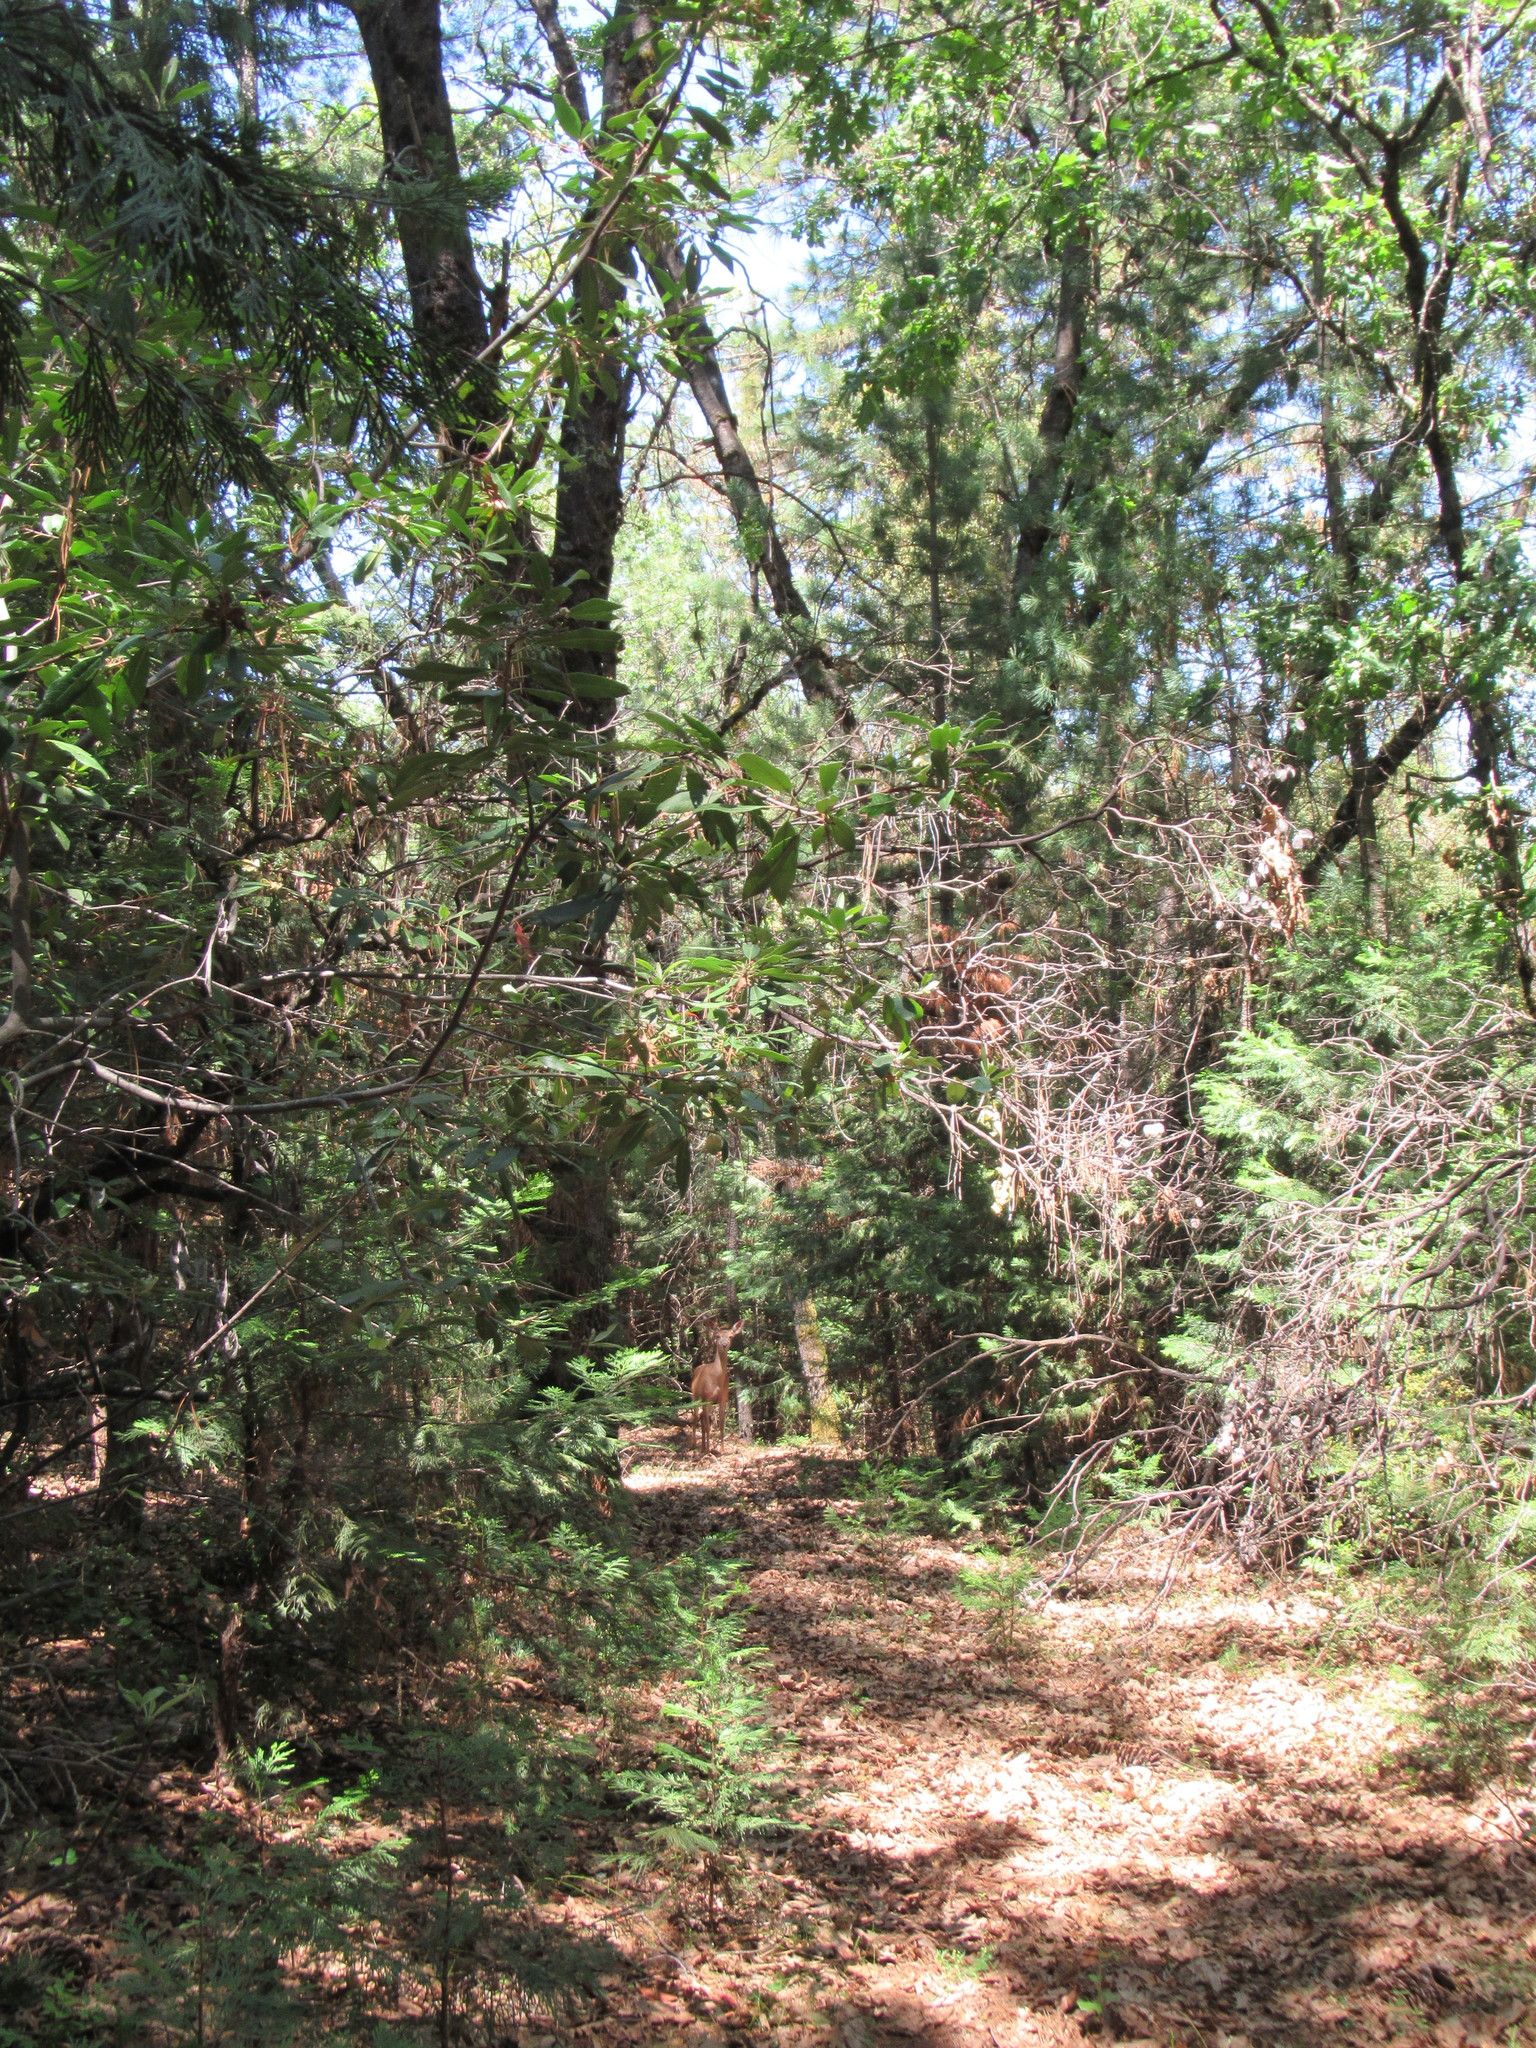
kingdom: Animalia
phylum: Chordata
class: Mammalia
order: Artiodactyla
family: Cervidae
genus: Odocoileus
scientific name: Odocoileus hemionus
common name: Mule deer
